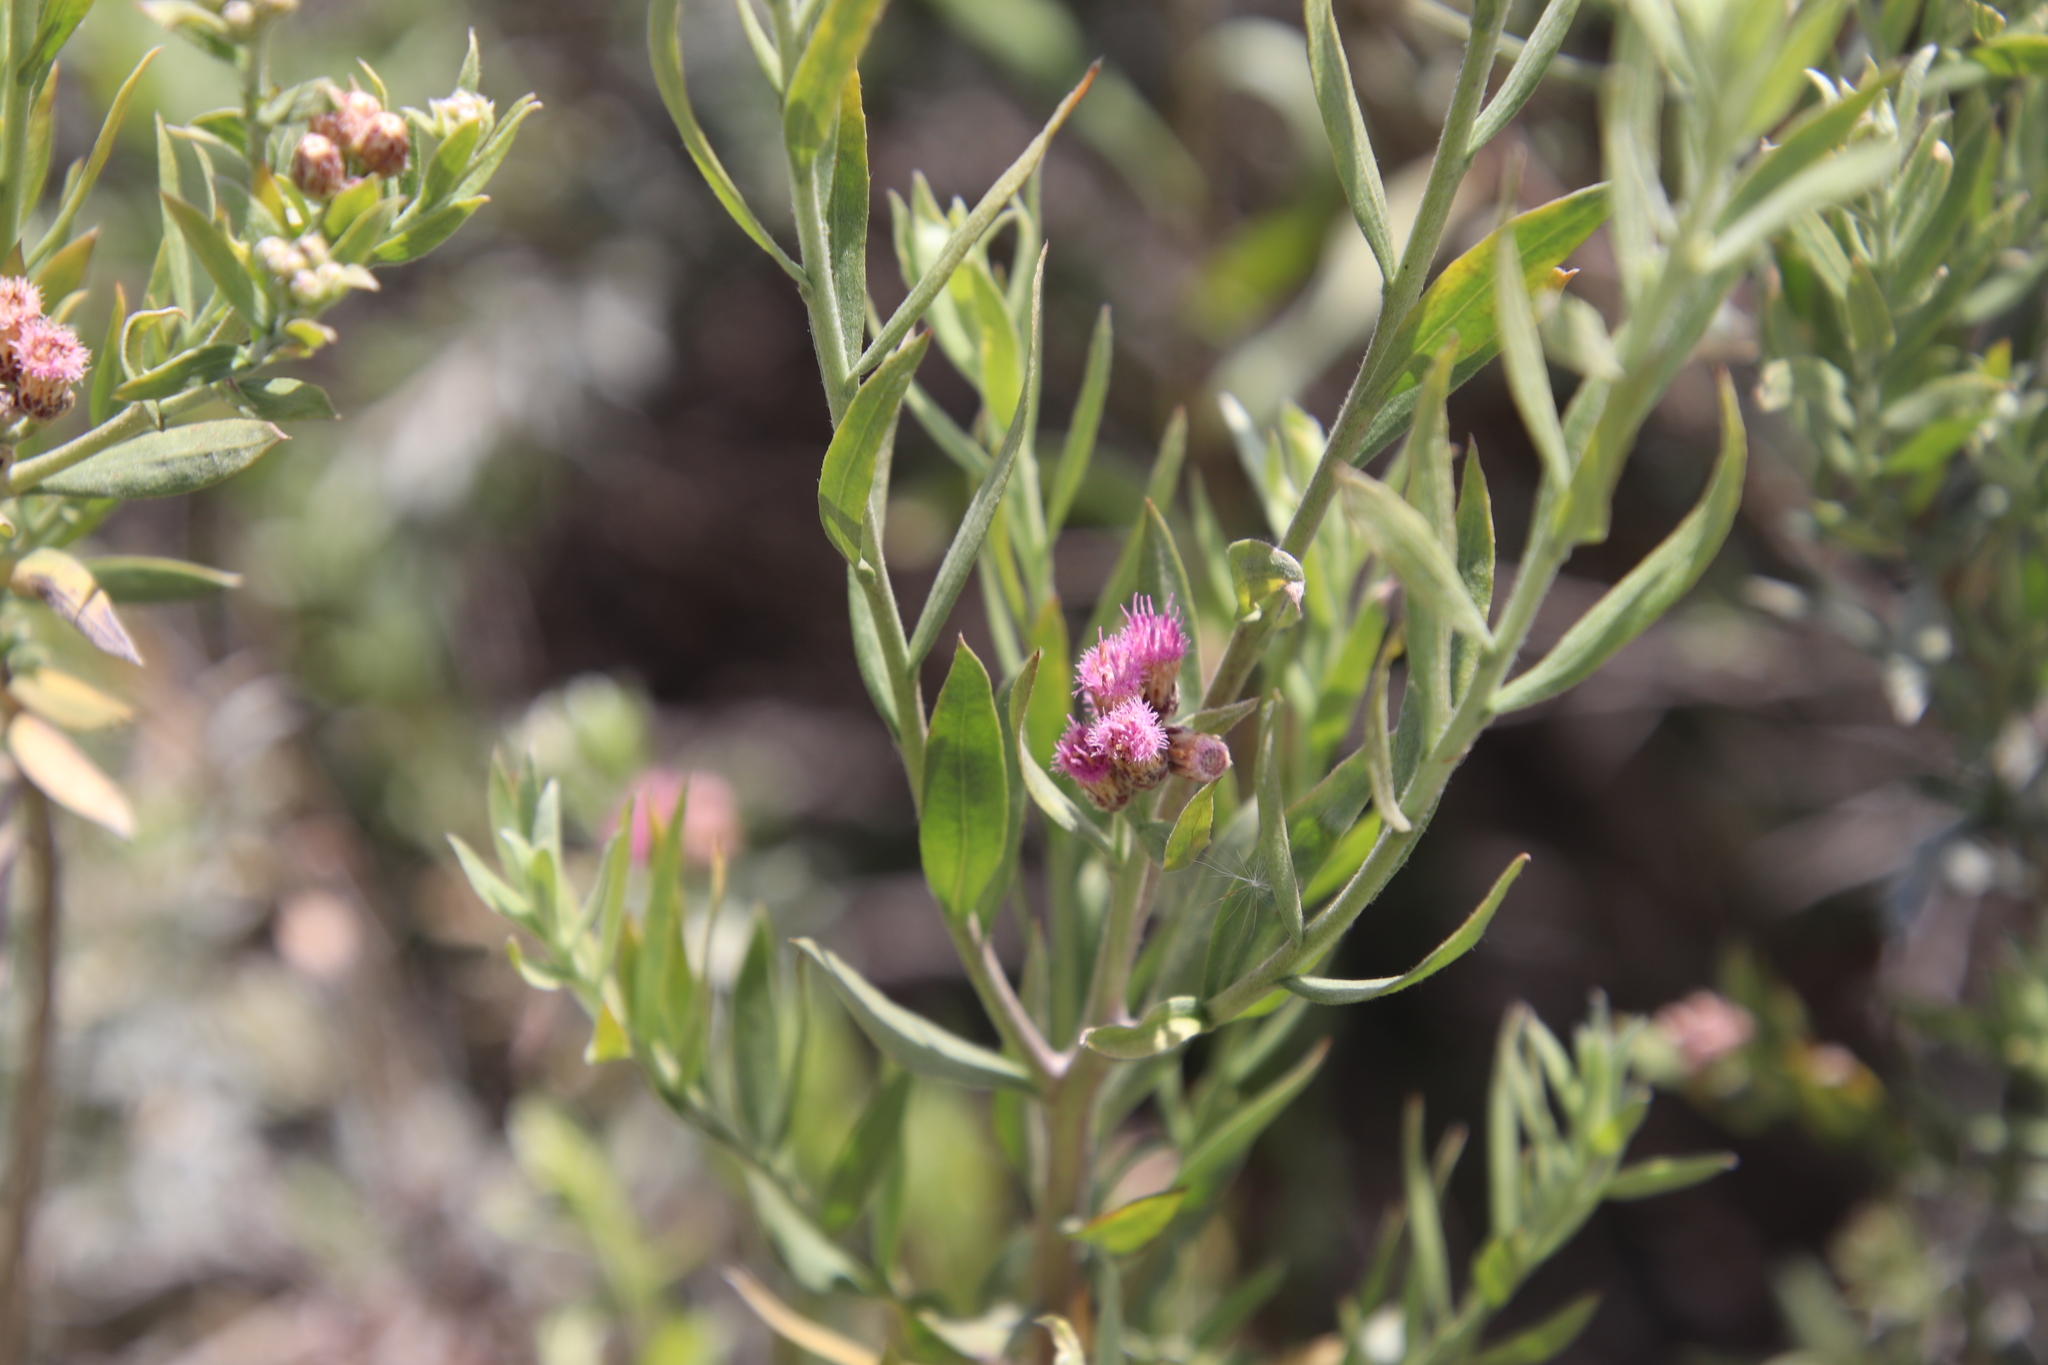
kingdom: Plantae
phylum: Tracheophyta
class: Magnoliopsida
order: Asterales
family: Asteraceae
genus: Pluchea
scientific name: Pluchea sericea
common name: Arrow-weed
